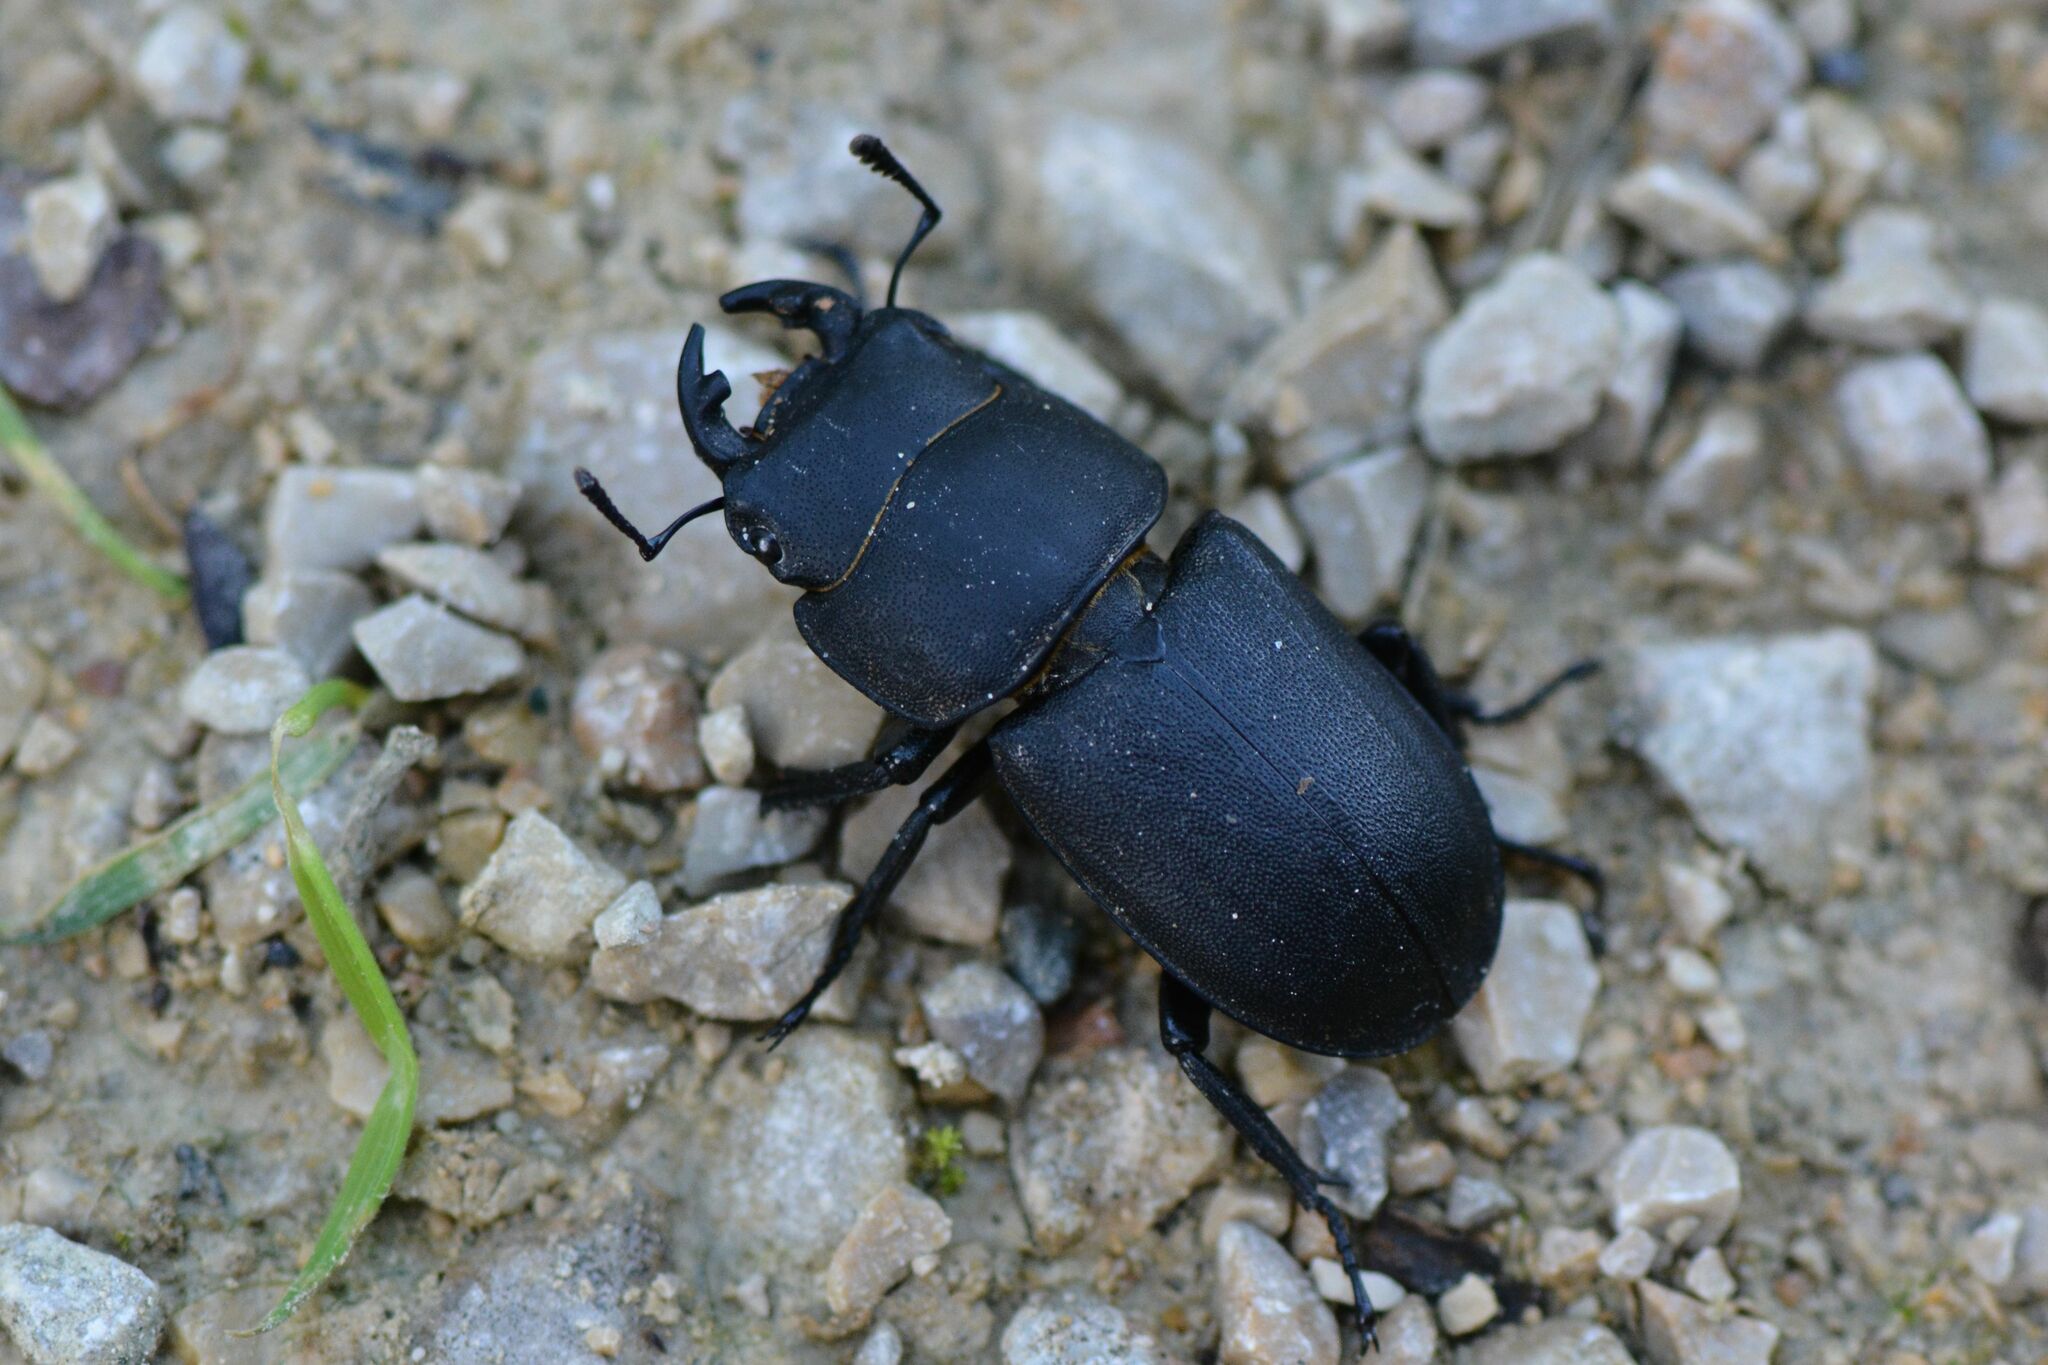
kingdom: Animalia
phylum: Arthropoda
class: Insecta
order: Coleoptera
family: Lucanidae
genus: Dorcus
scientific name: Dorcus parallelipipedus
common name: Lesser stag beetle
